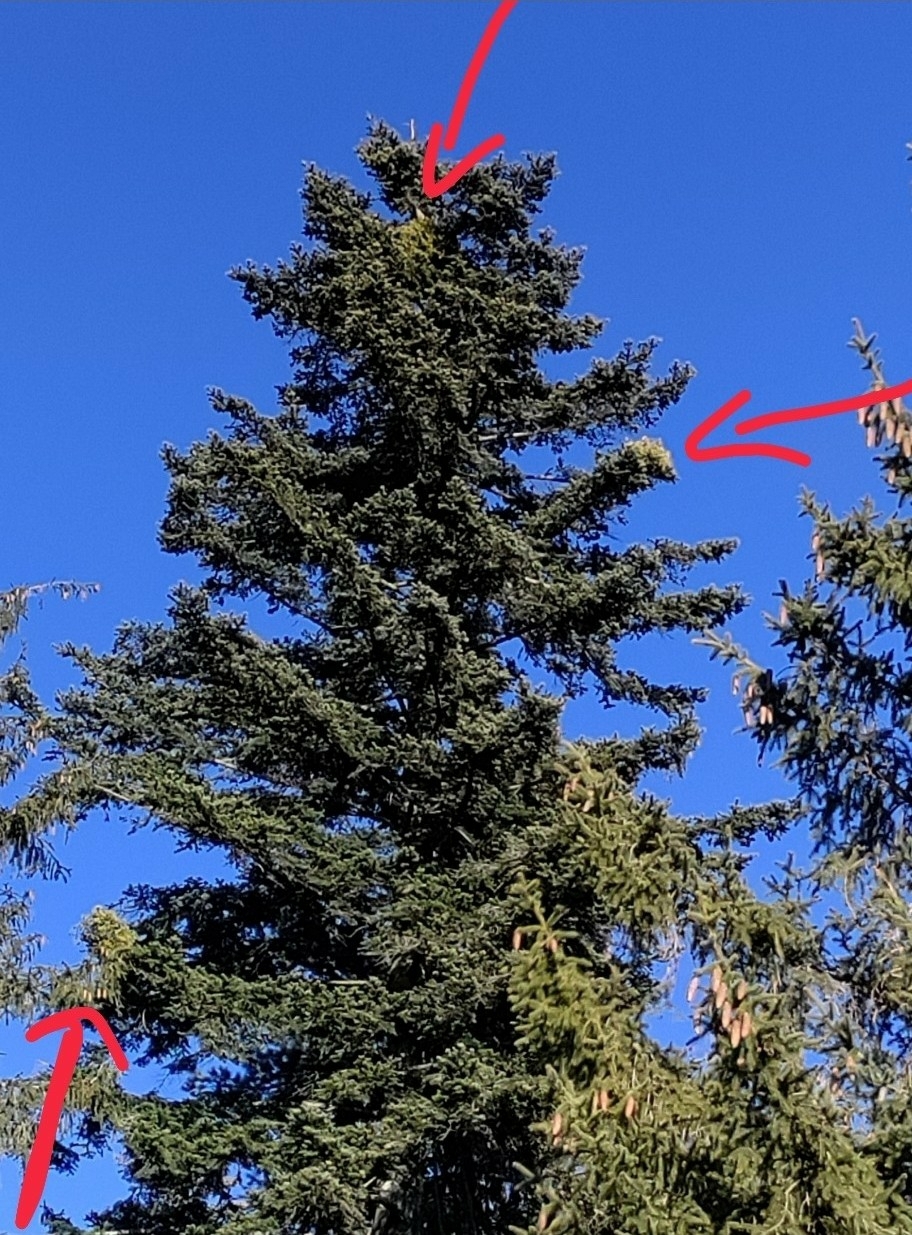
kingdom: Plantae
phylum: Tracheophyta
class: Magnoliopsida
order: Santalales
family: Viscaceae
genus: Viscum
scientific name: Viscum album
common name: Mistletoe
